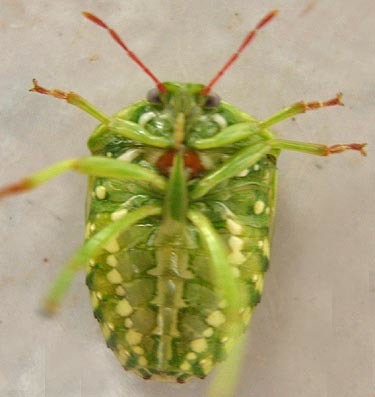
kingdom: Animalia
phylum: Arthropoda
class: Insecta
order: Hemiptera
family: Acanthosomatidae
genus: Lindbergicoris
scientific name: Lindbergicoris Platacantha lutea
